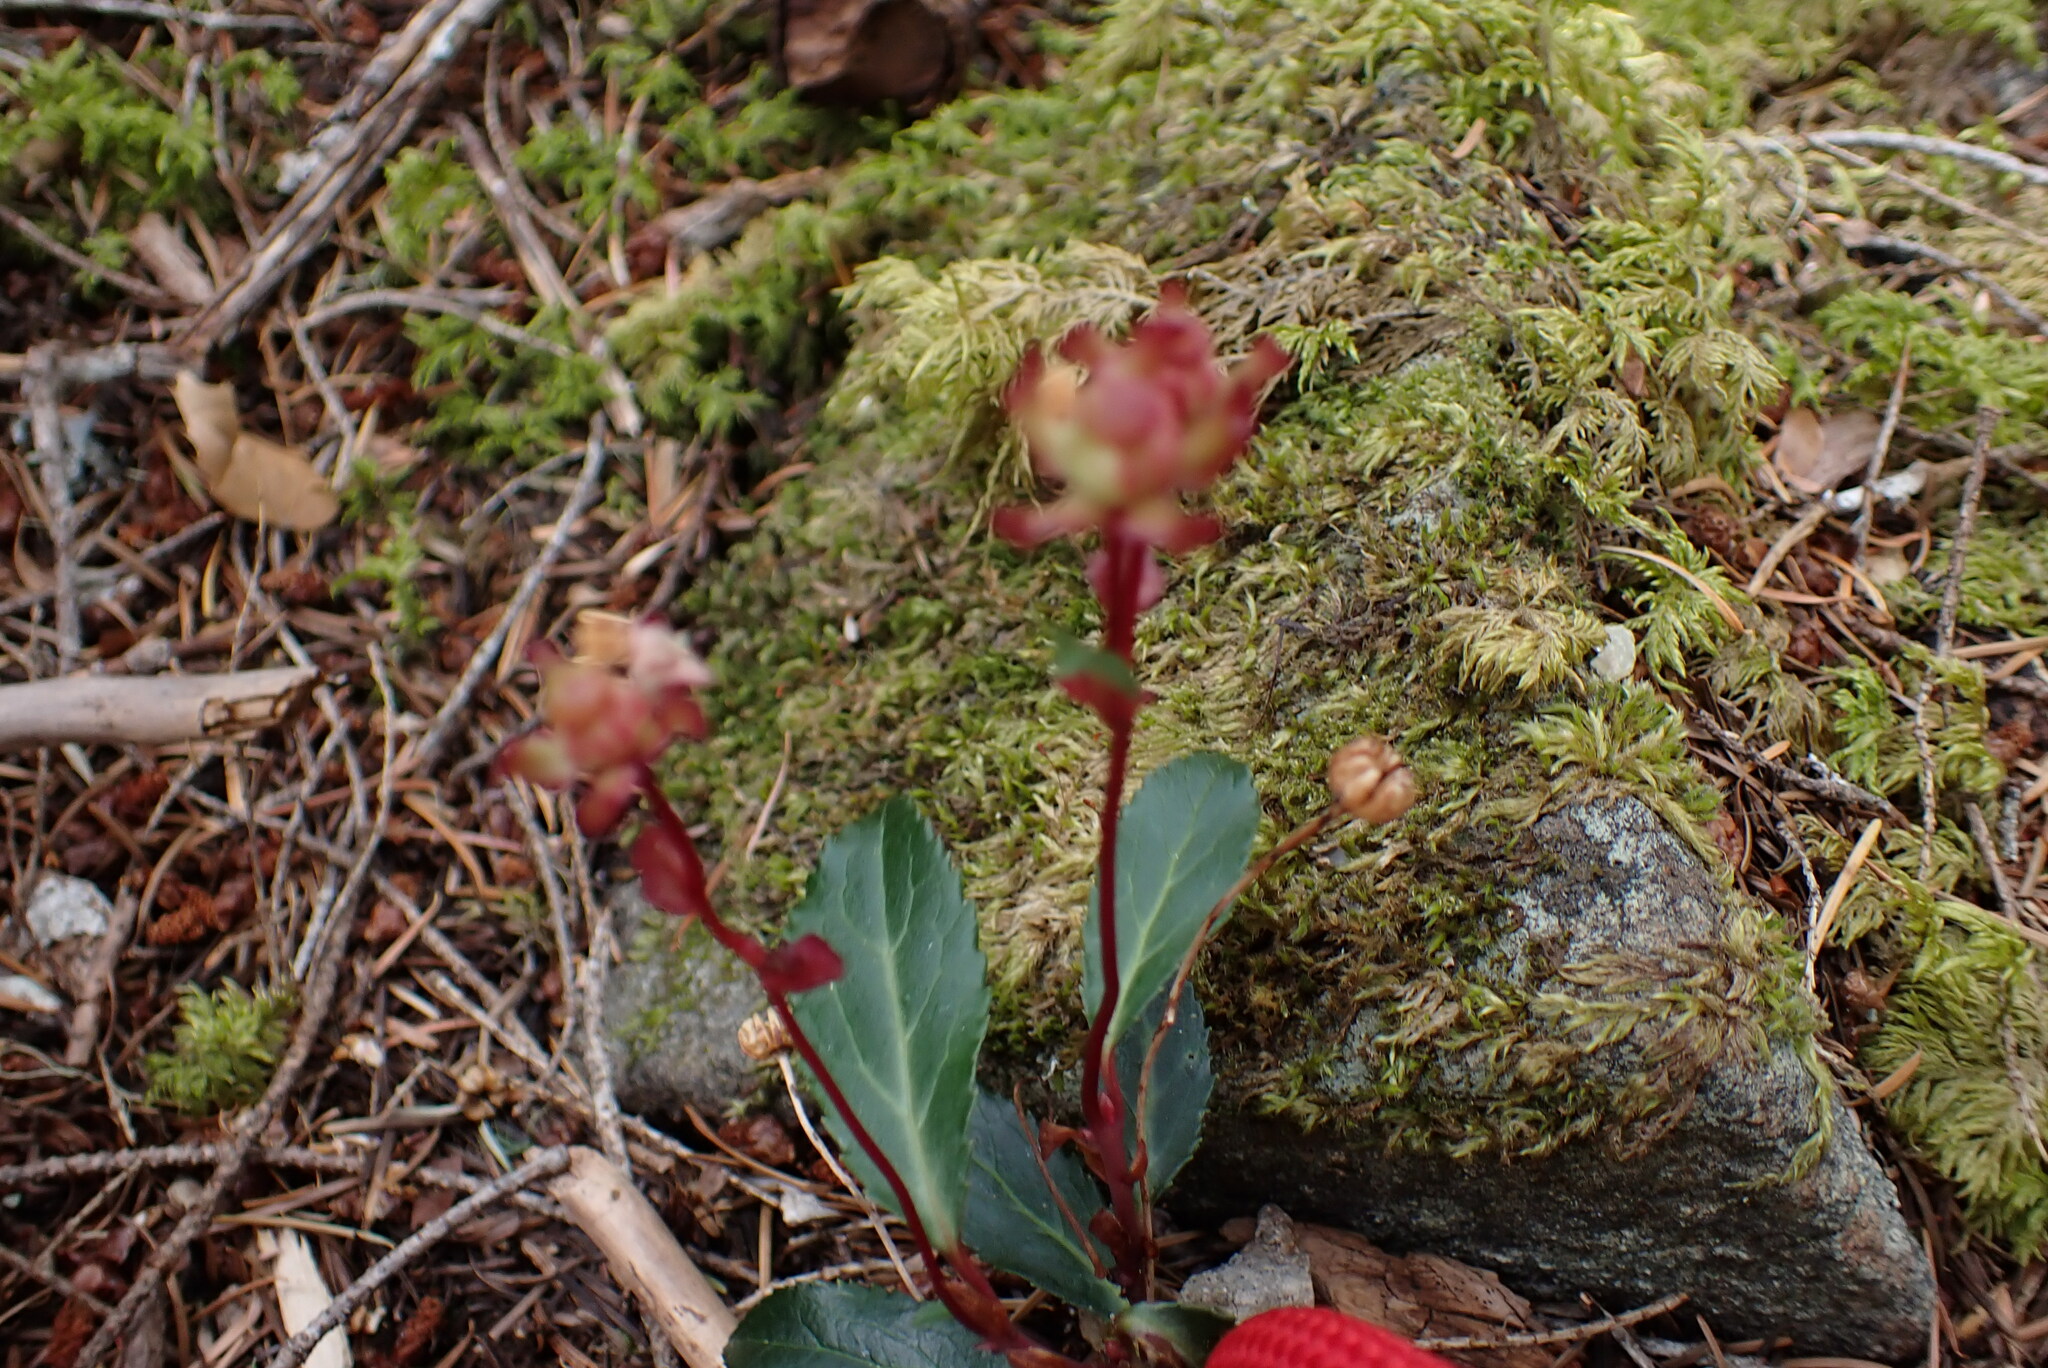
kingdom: Plantae
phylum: Tracheophyta
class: Magnoliopsida
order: Ericales
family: Ericaceae
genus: Chimaphila
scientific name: Chimaphila menziesii
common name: Menzies' pipsissewa
